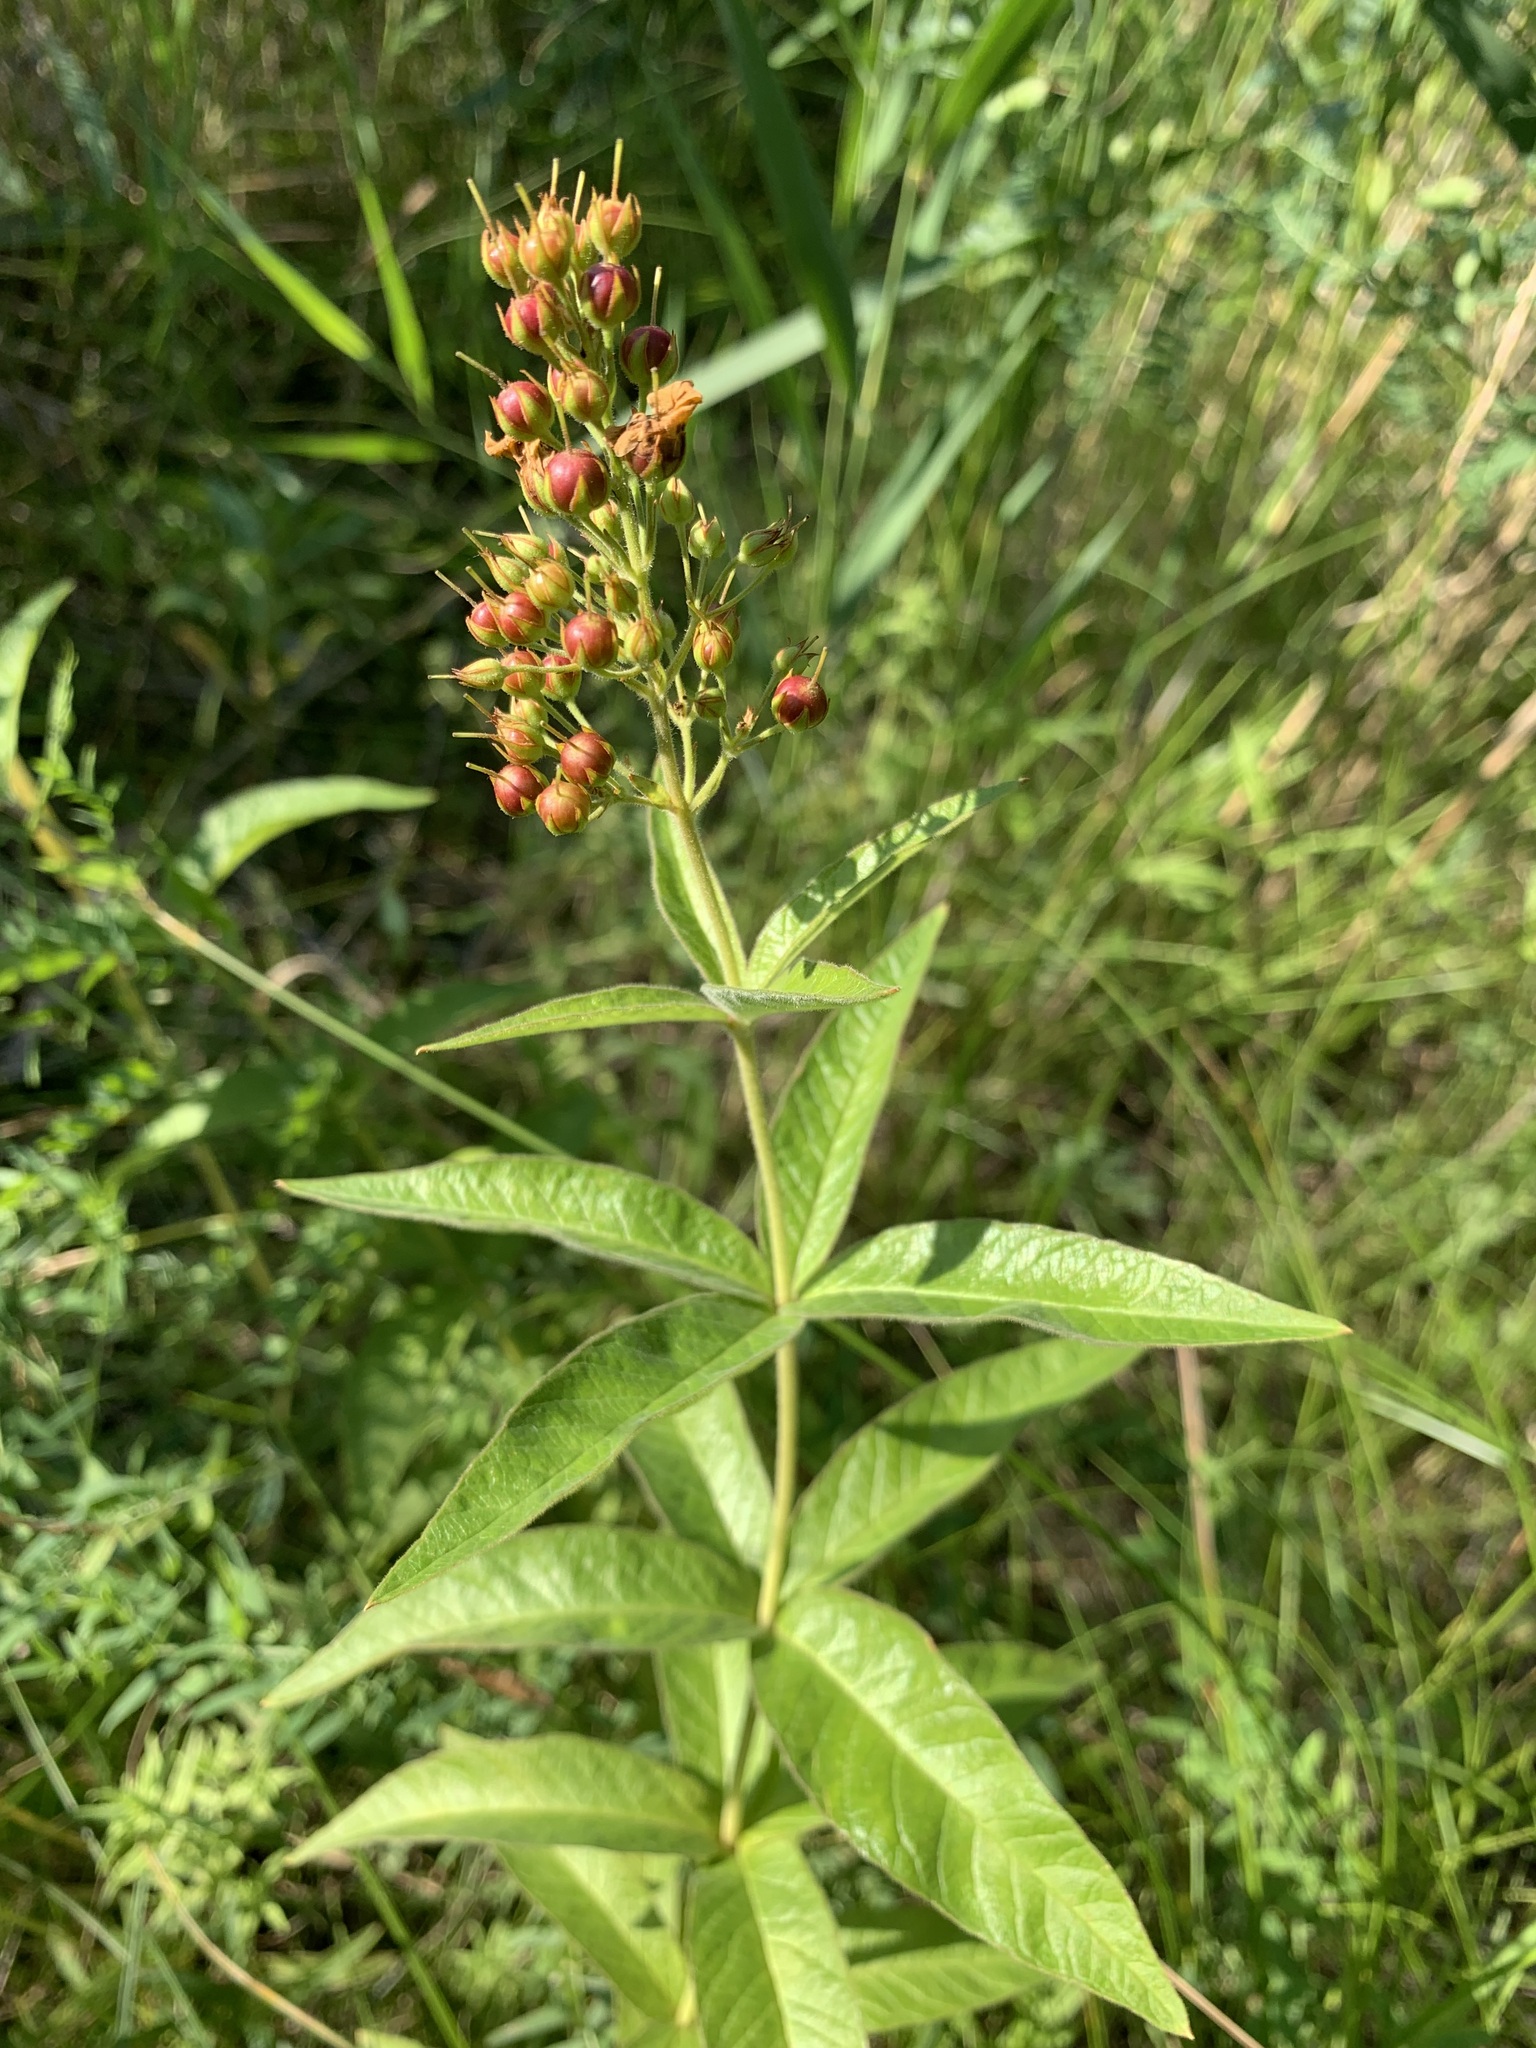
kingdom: Plantae
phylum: Tracheophyta
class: Magnoliopsida
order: Ericales
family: Primulaceae
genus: Lysimachia
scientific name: Lysimachia vulgaris
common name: Yellow loosestrife
